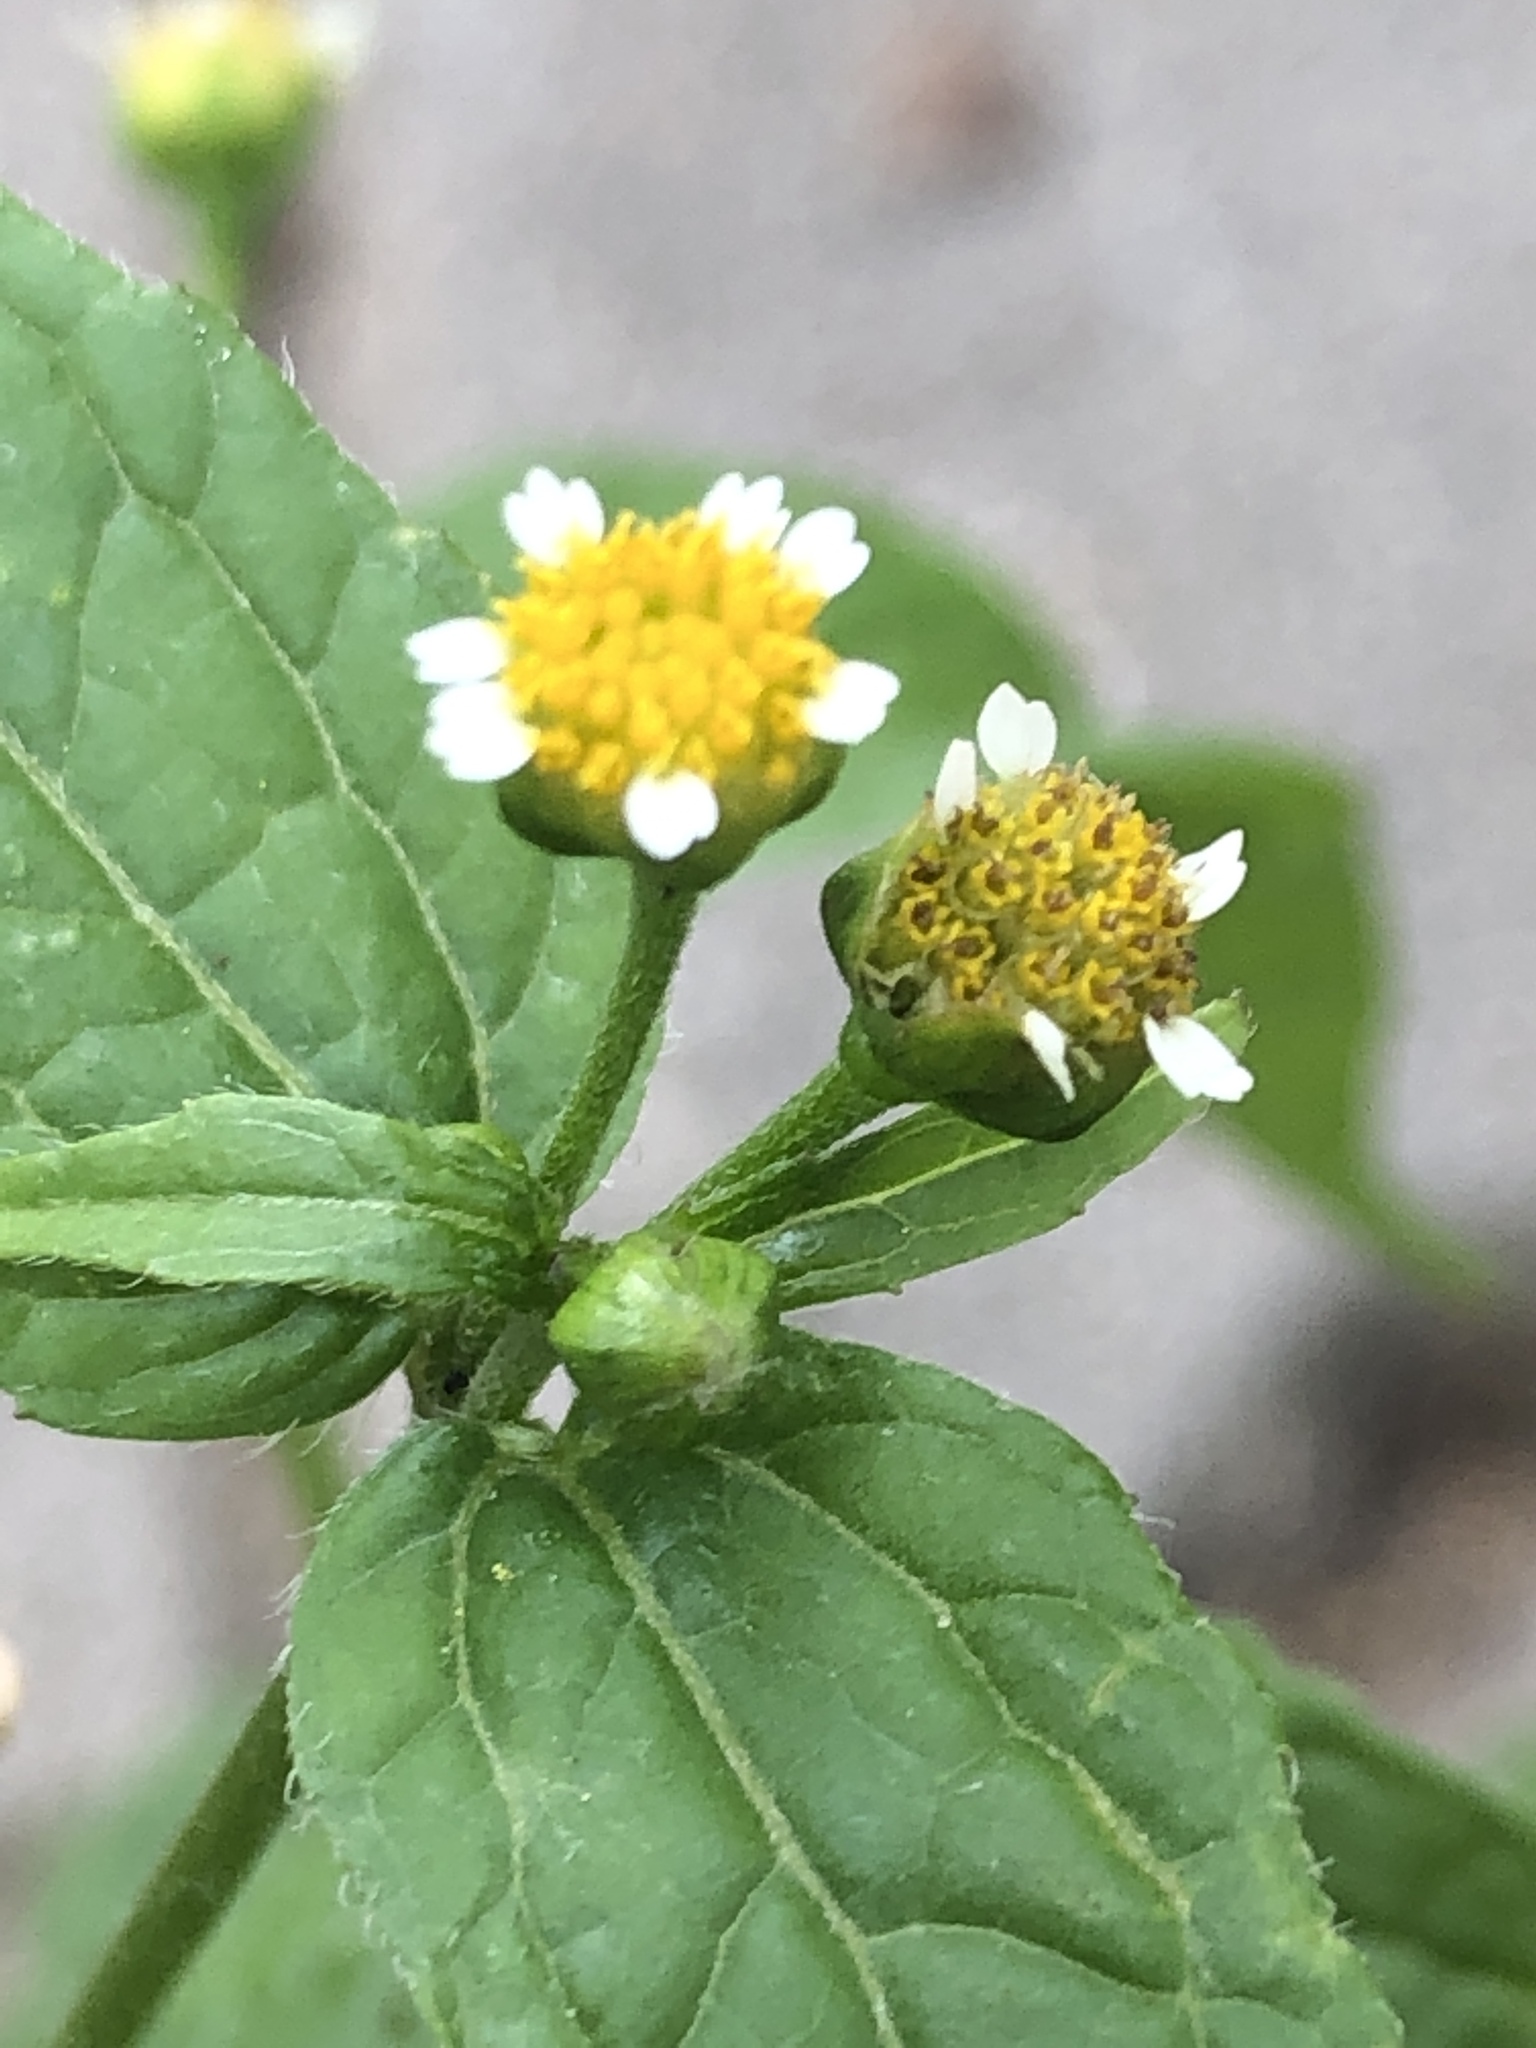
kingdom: Plantae
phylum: Tracheophyta
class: Magnoliopsida
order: Asterales
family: Asteraceae
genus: Galinsoga
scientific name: Galinsoga parviflora
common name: Gallant soldier
